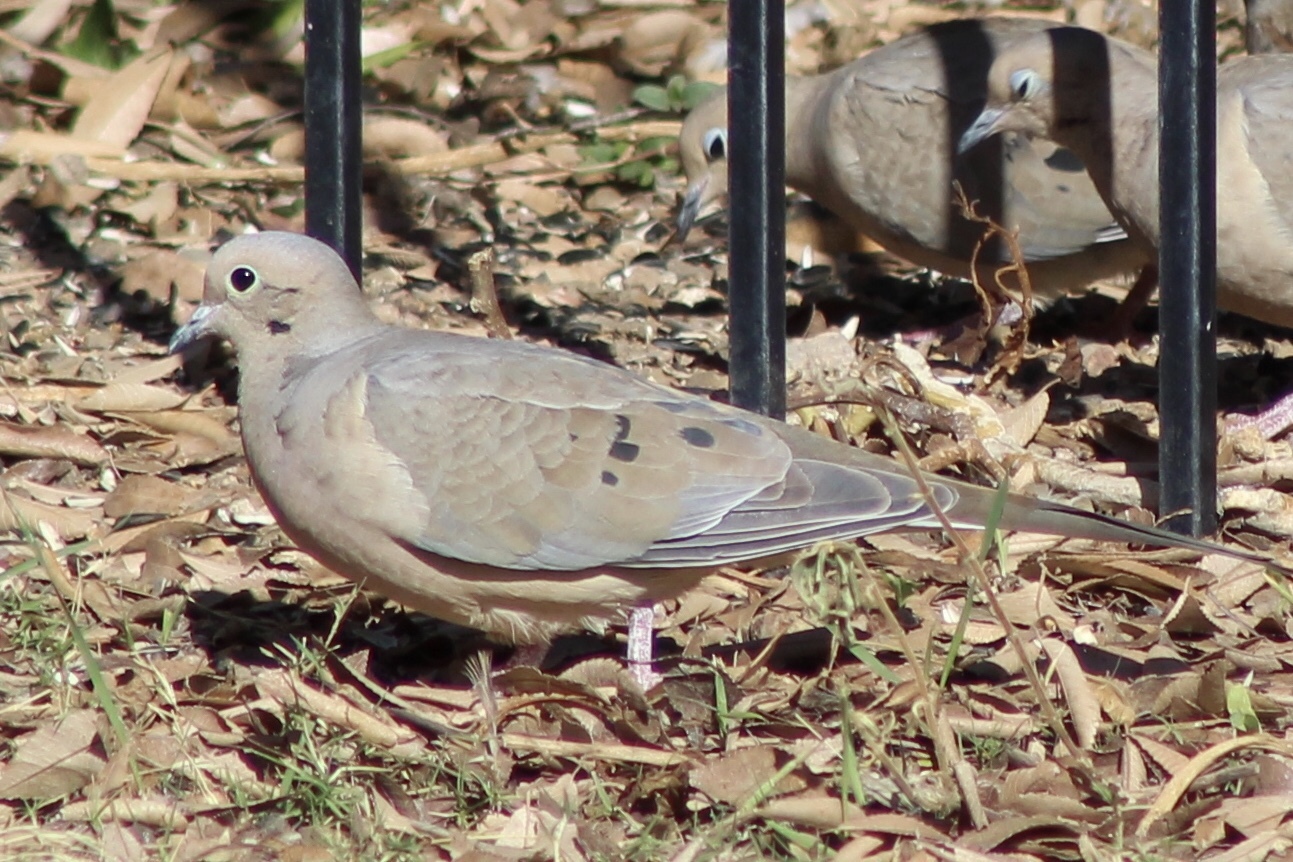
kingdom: Animalia
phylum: Chordata
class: Aves
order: Columbiformes
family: Columbidae
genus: Zenaida
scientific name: Zenaida macroura
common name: Mourning dove
